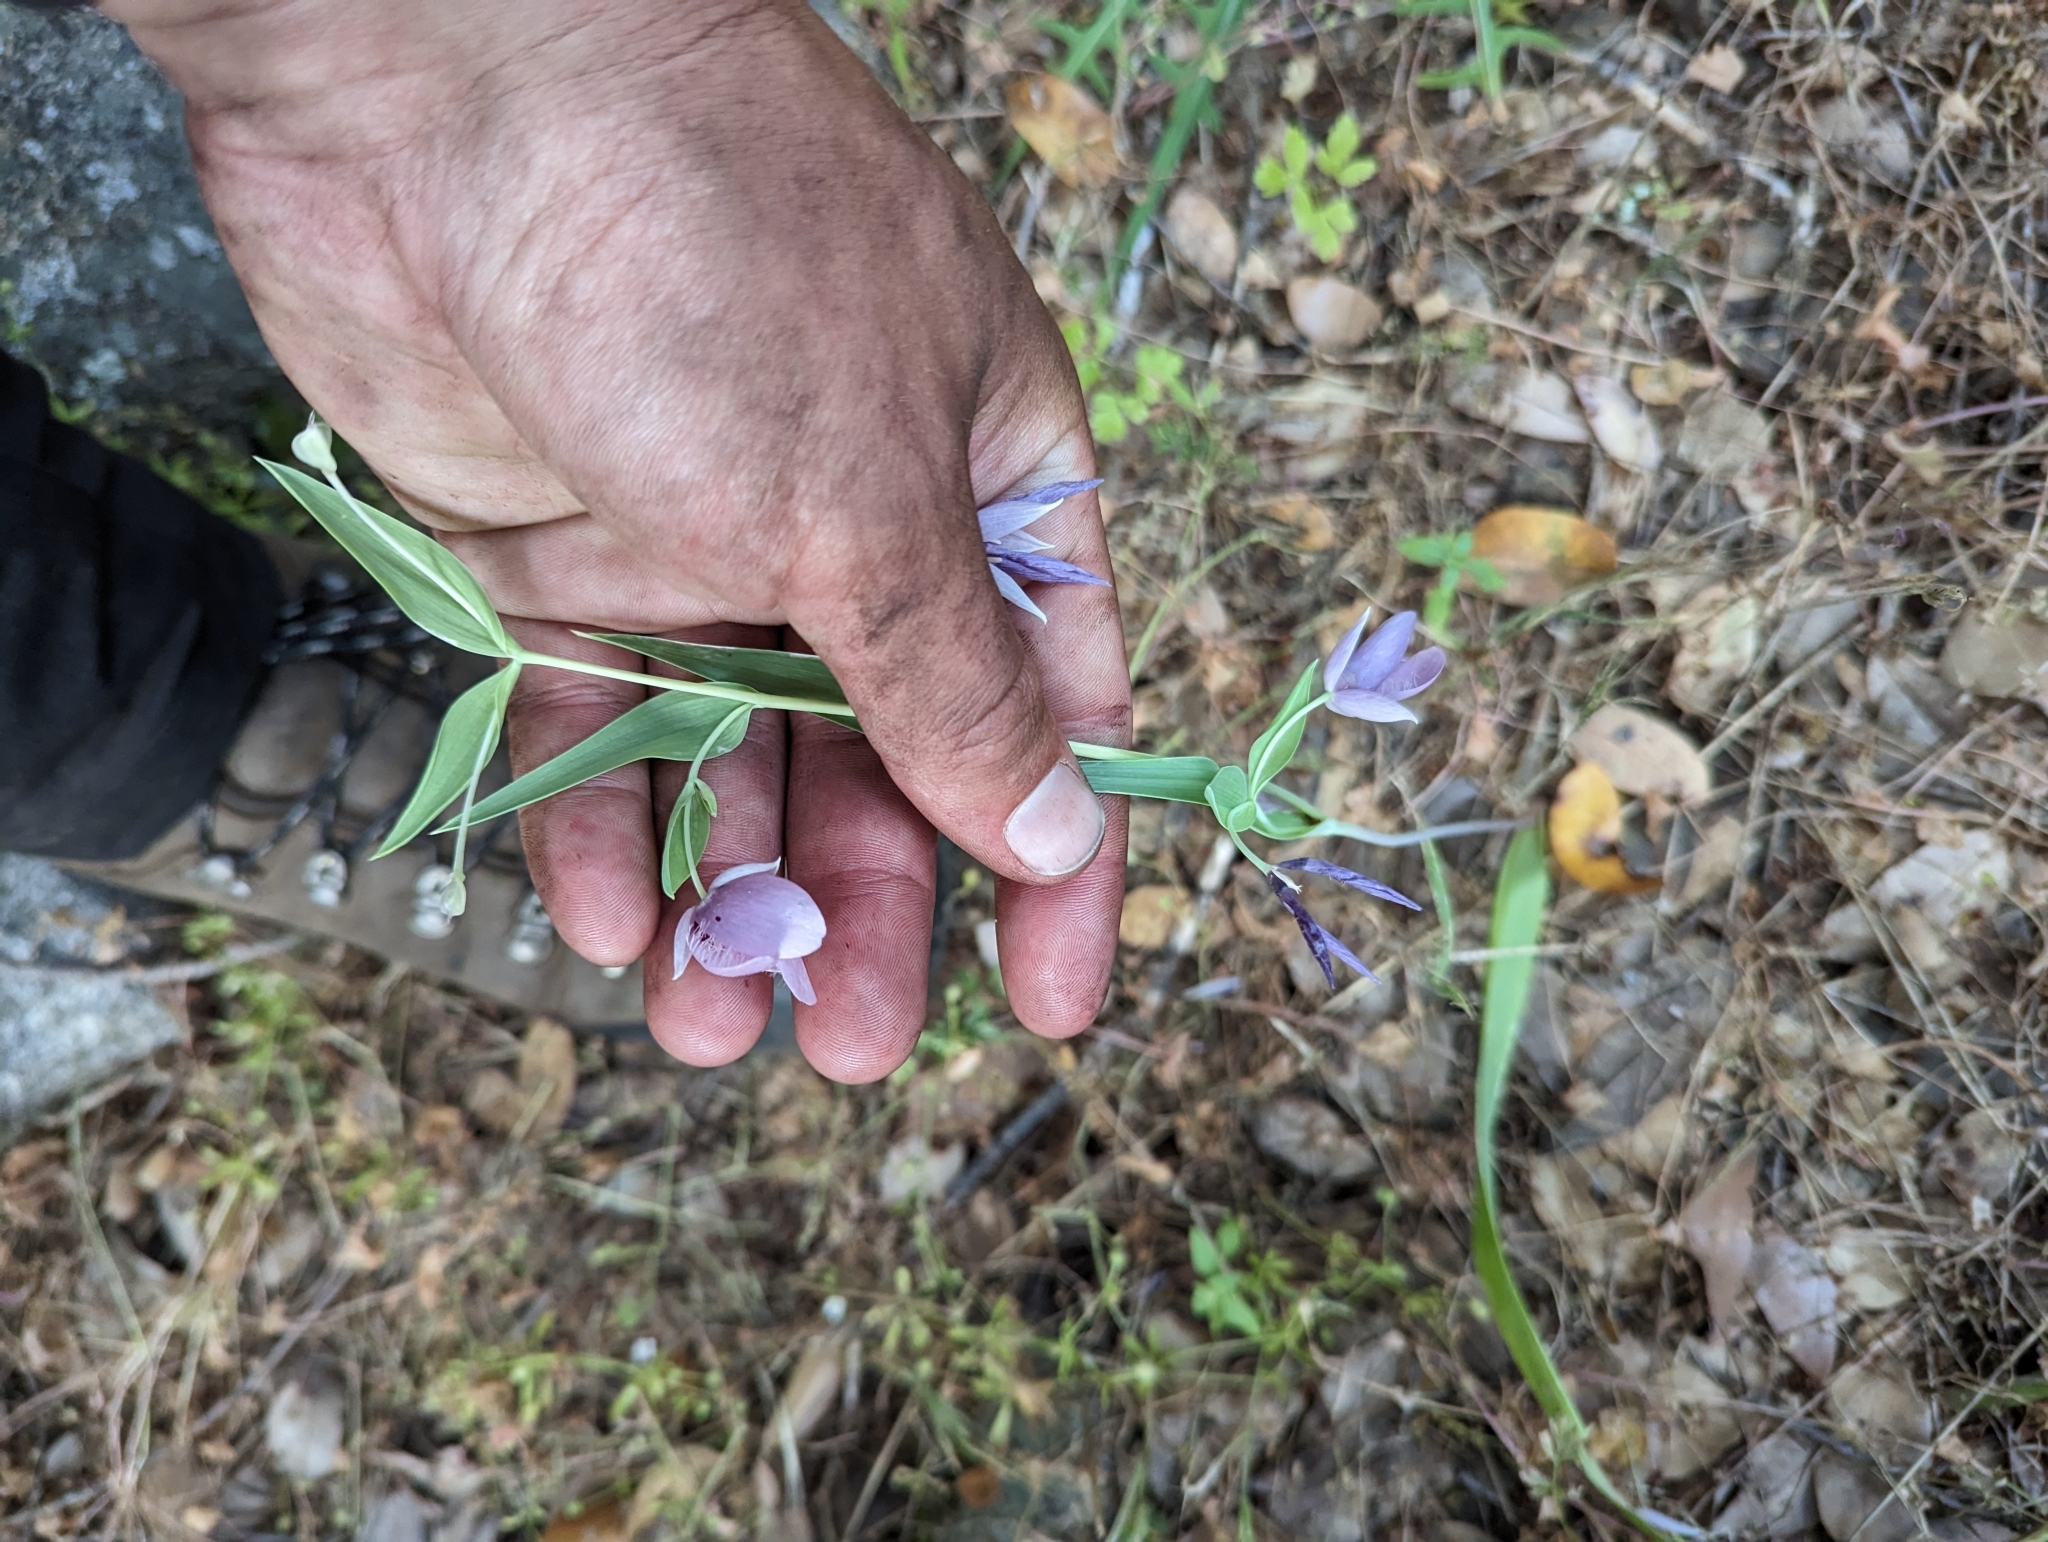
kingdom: Plantae
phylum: Tracheophyta
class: Liliopsida
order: Liliales
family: Liliaceae
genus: Calochortus
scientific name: Calochortus amoenus
